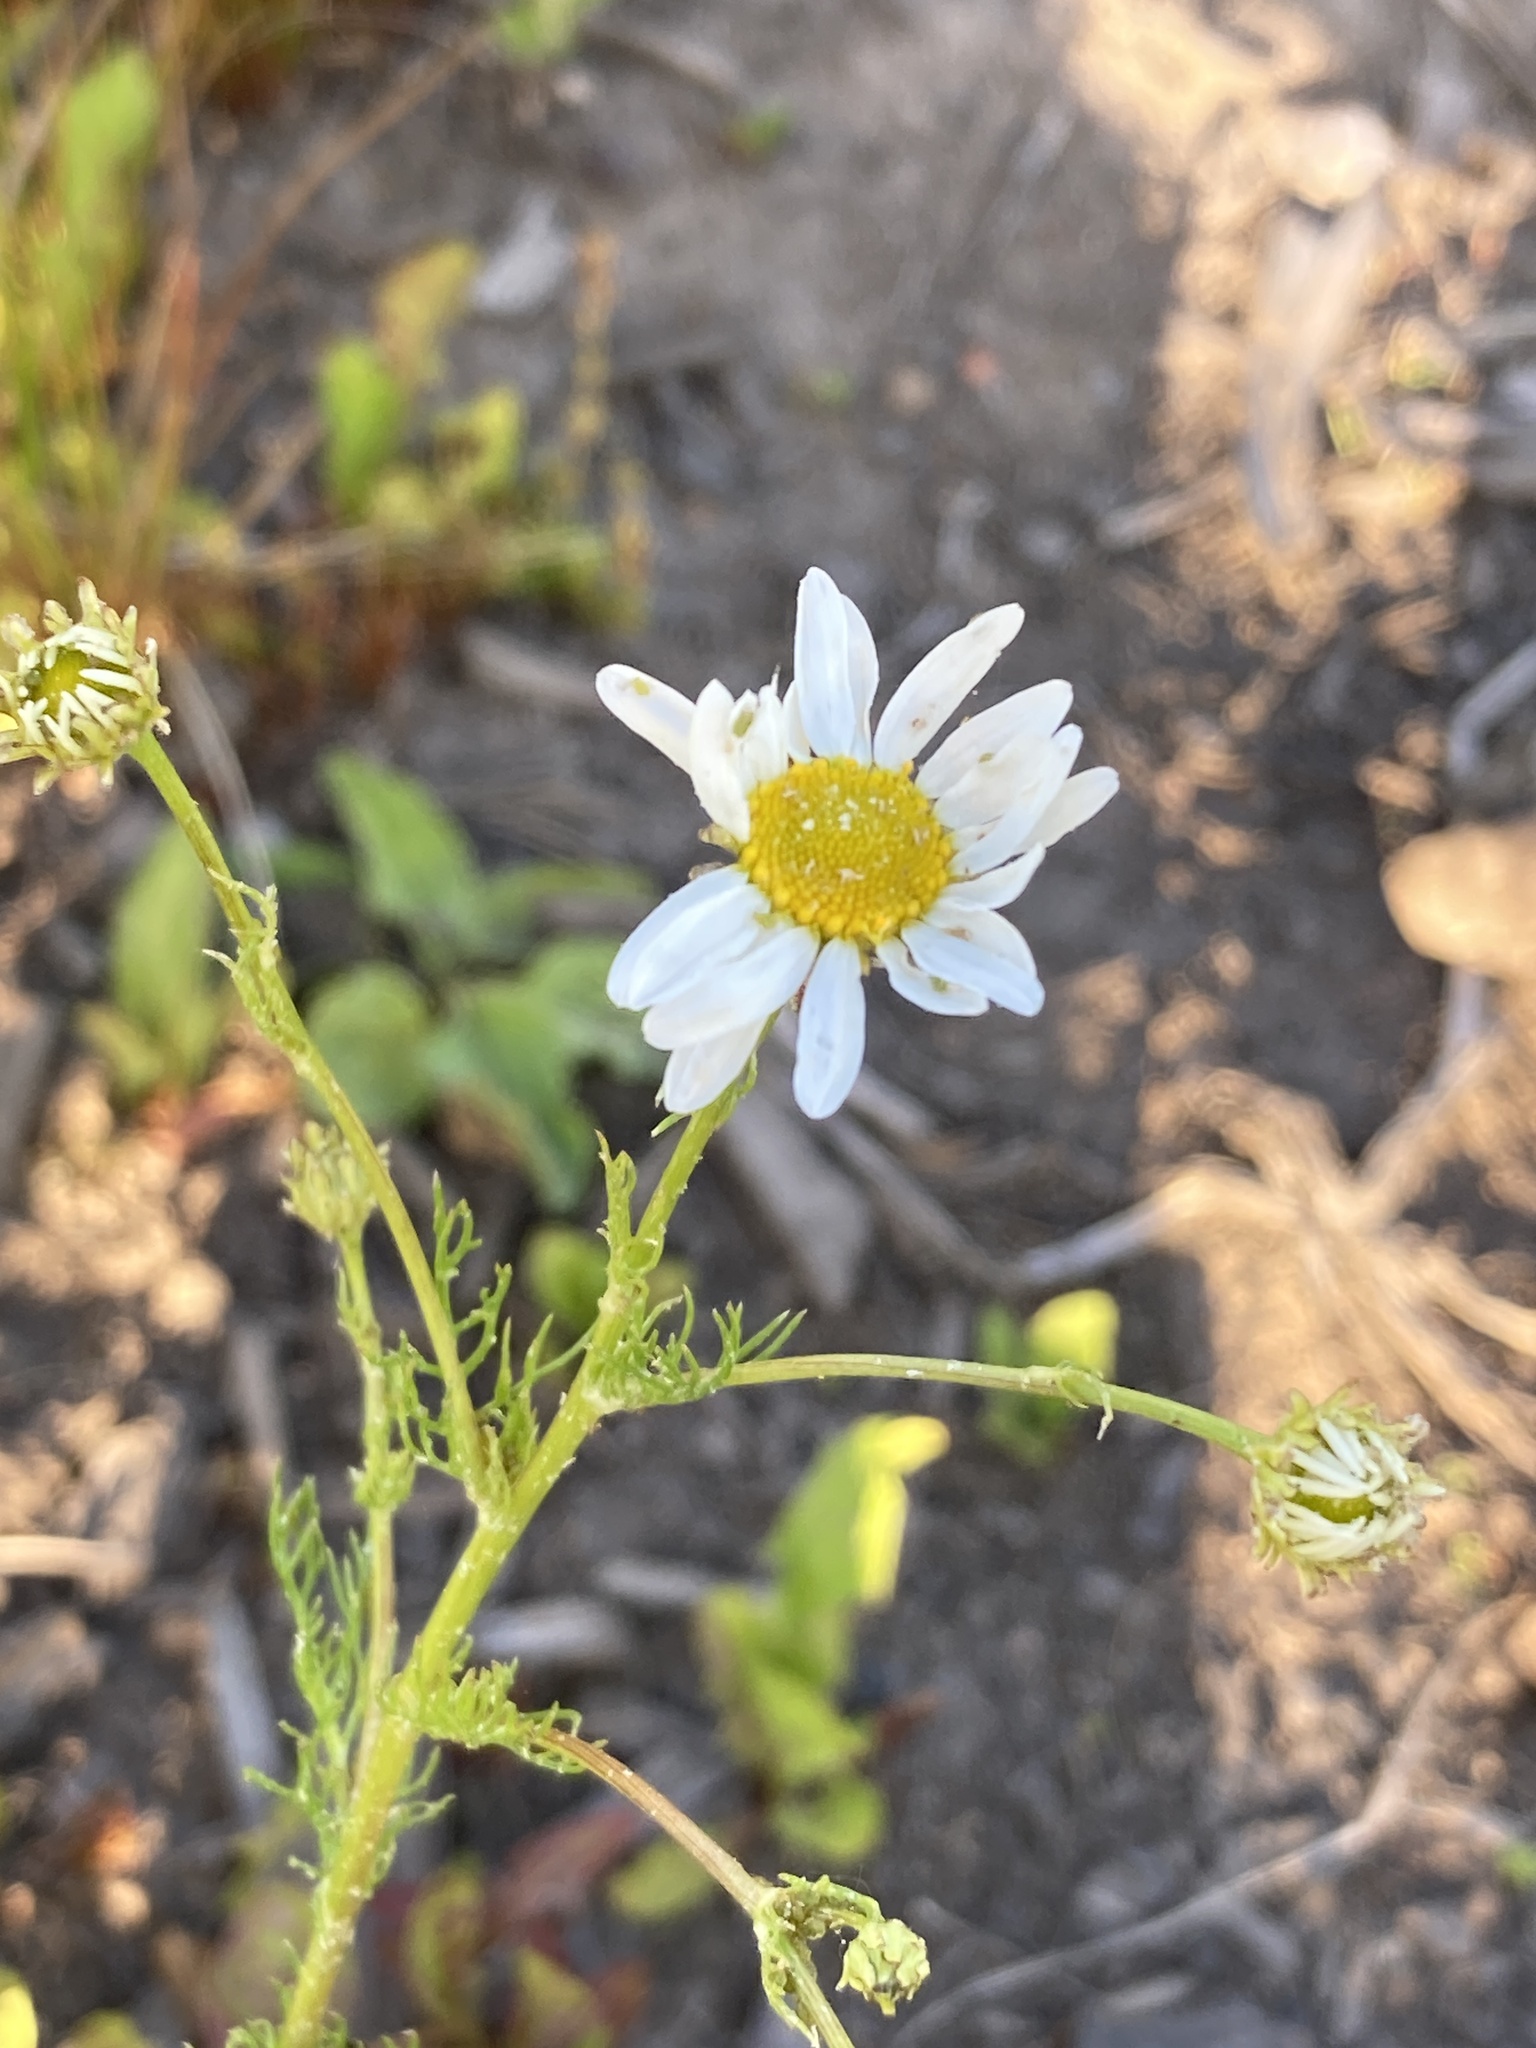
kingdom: Plantae
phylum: Tracheophyta
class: Magnoliopsida
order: Asterales
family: Asteraceae
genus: Tripleurospermum
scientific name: Tripleurospermum inodorum
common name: Scentless mayweed
